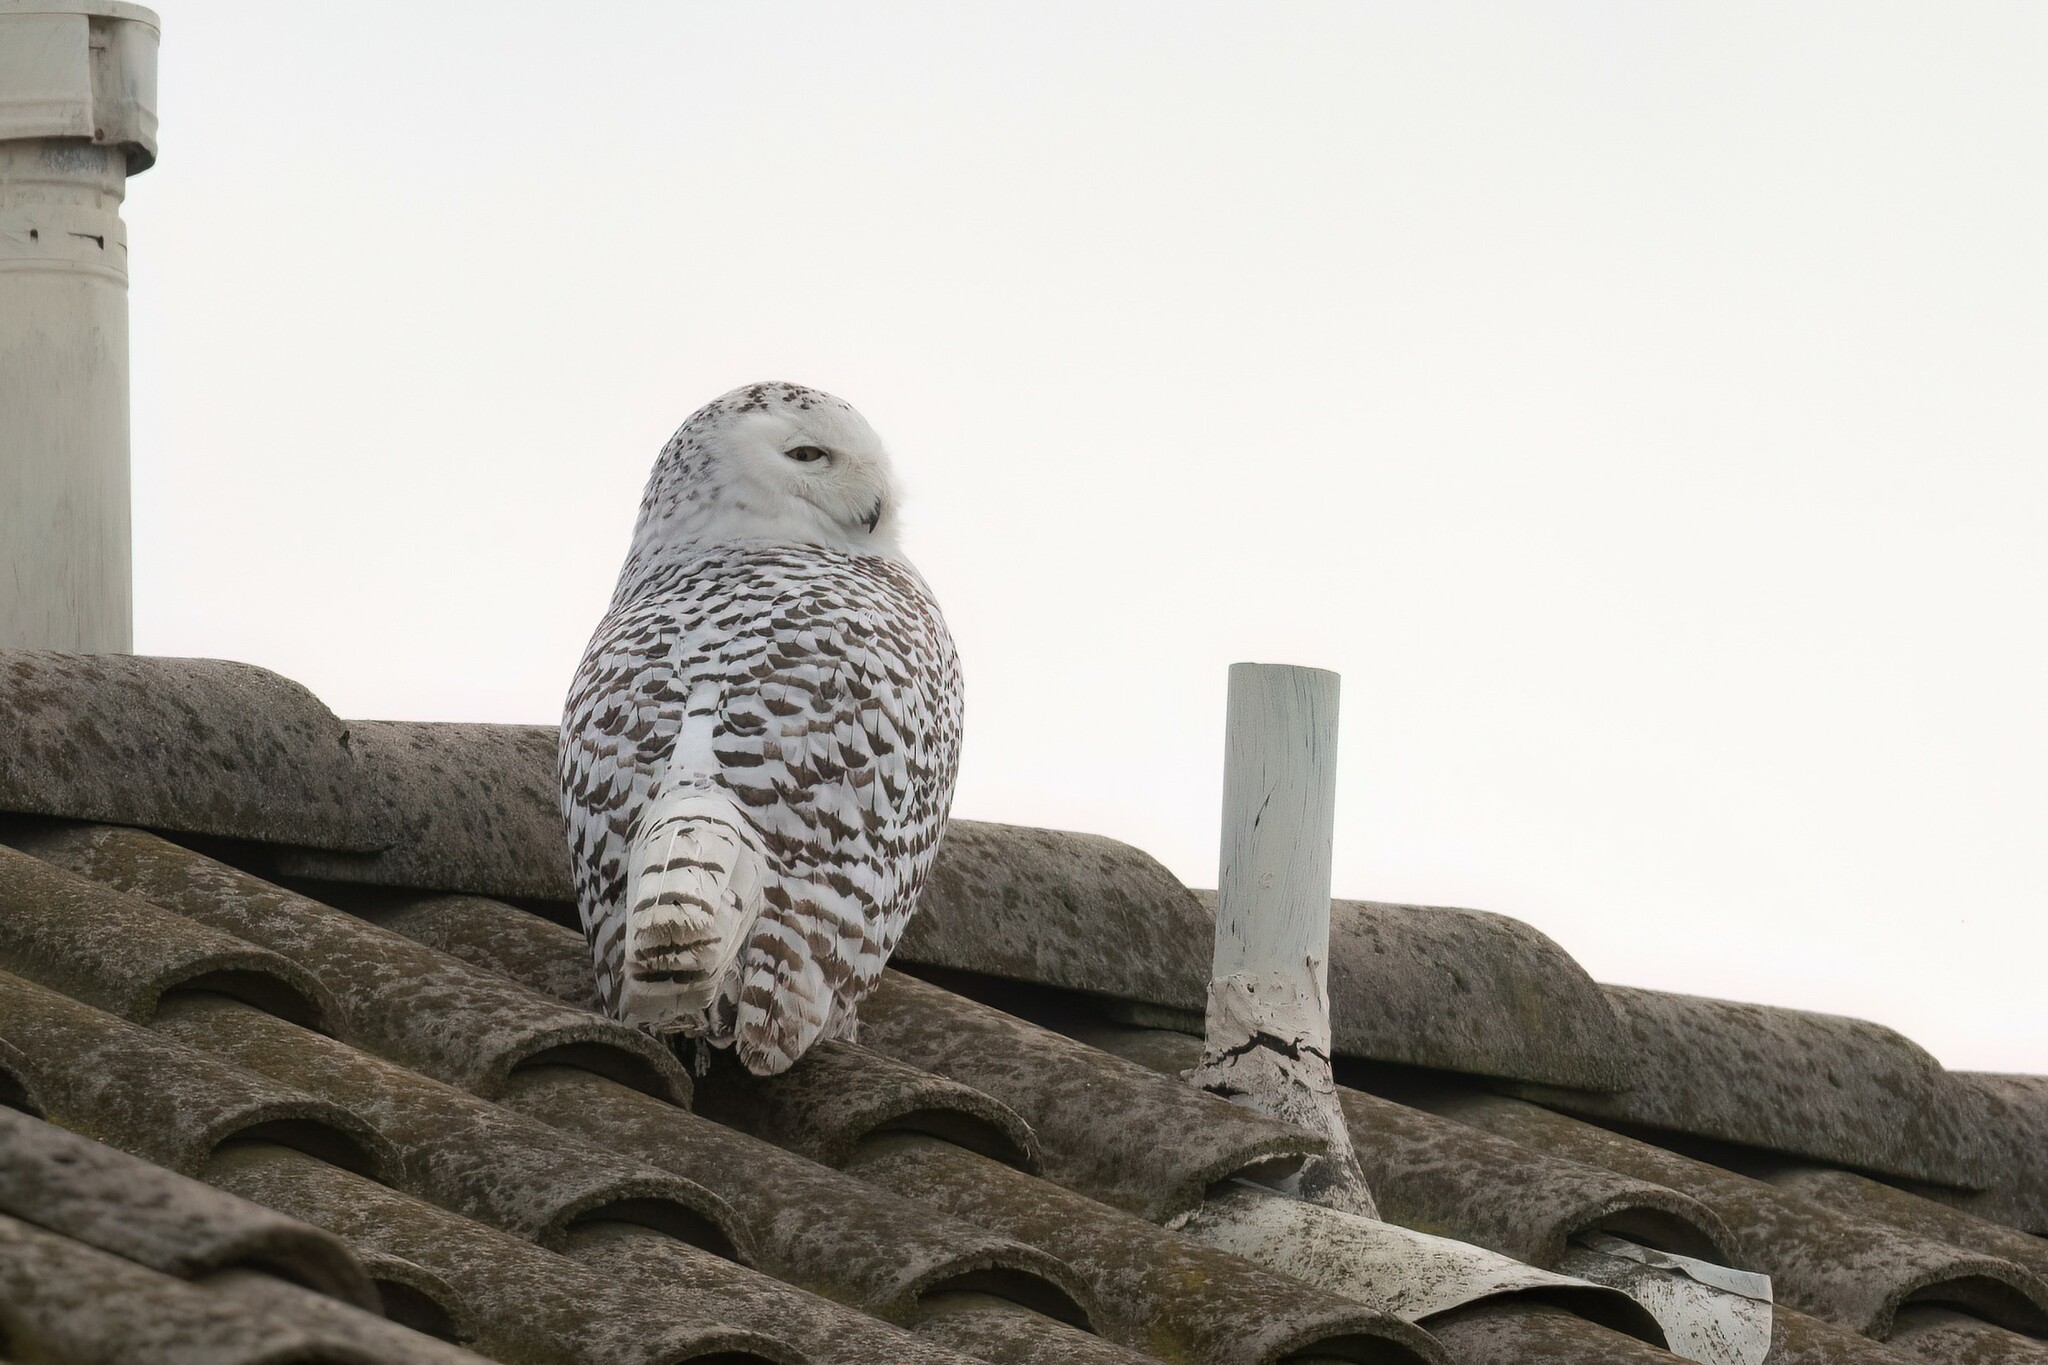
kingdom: Animalia
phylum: Chordata
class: Aves
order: Strigiformes
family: Strigidae
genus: Bubo
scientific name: Bubo scandiacus
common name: Snowy owl
